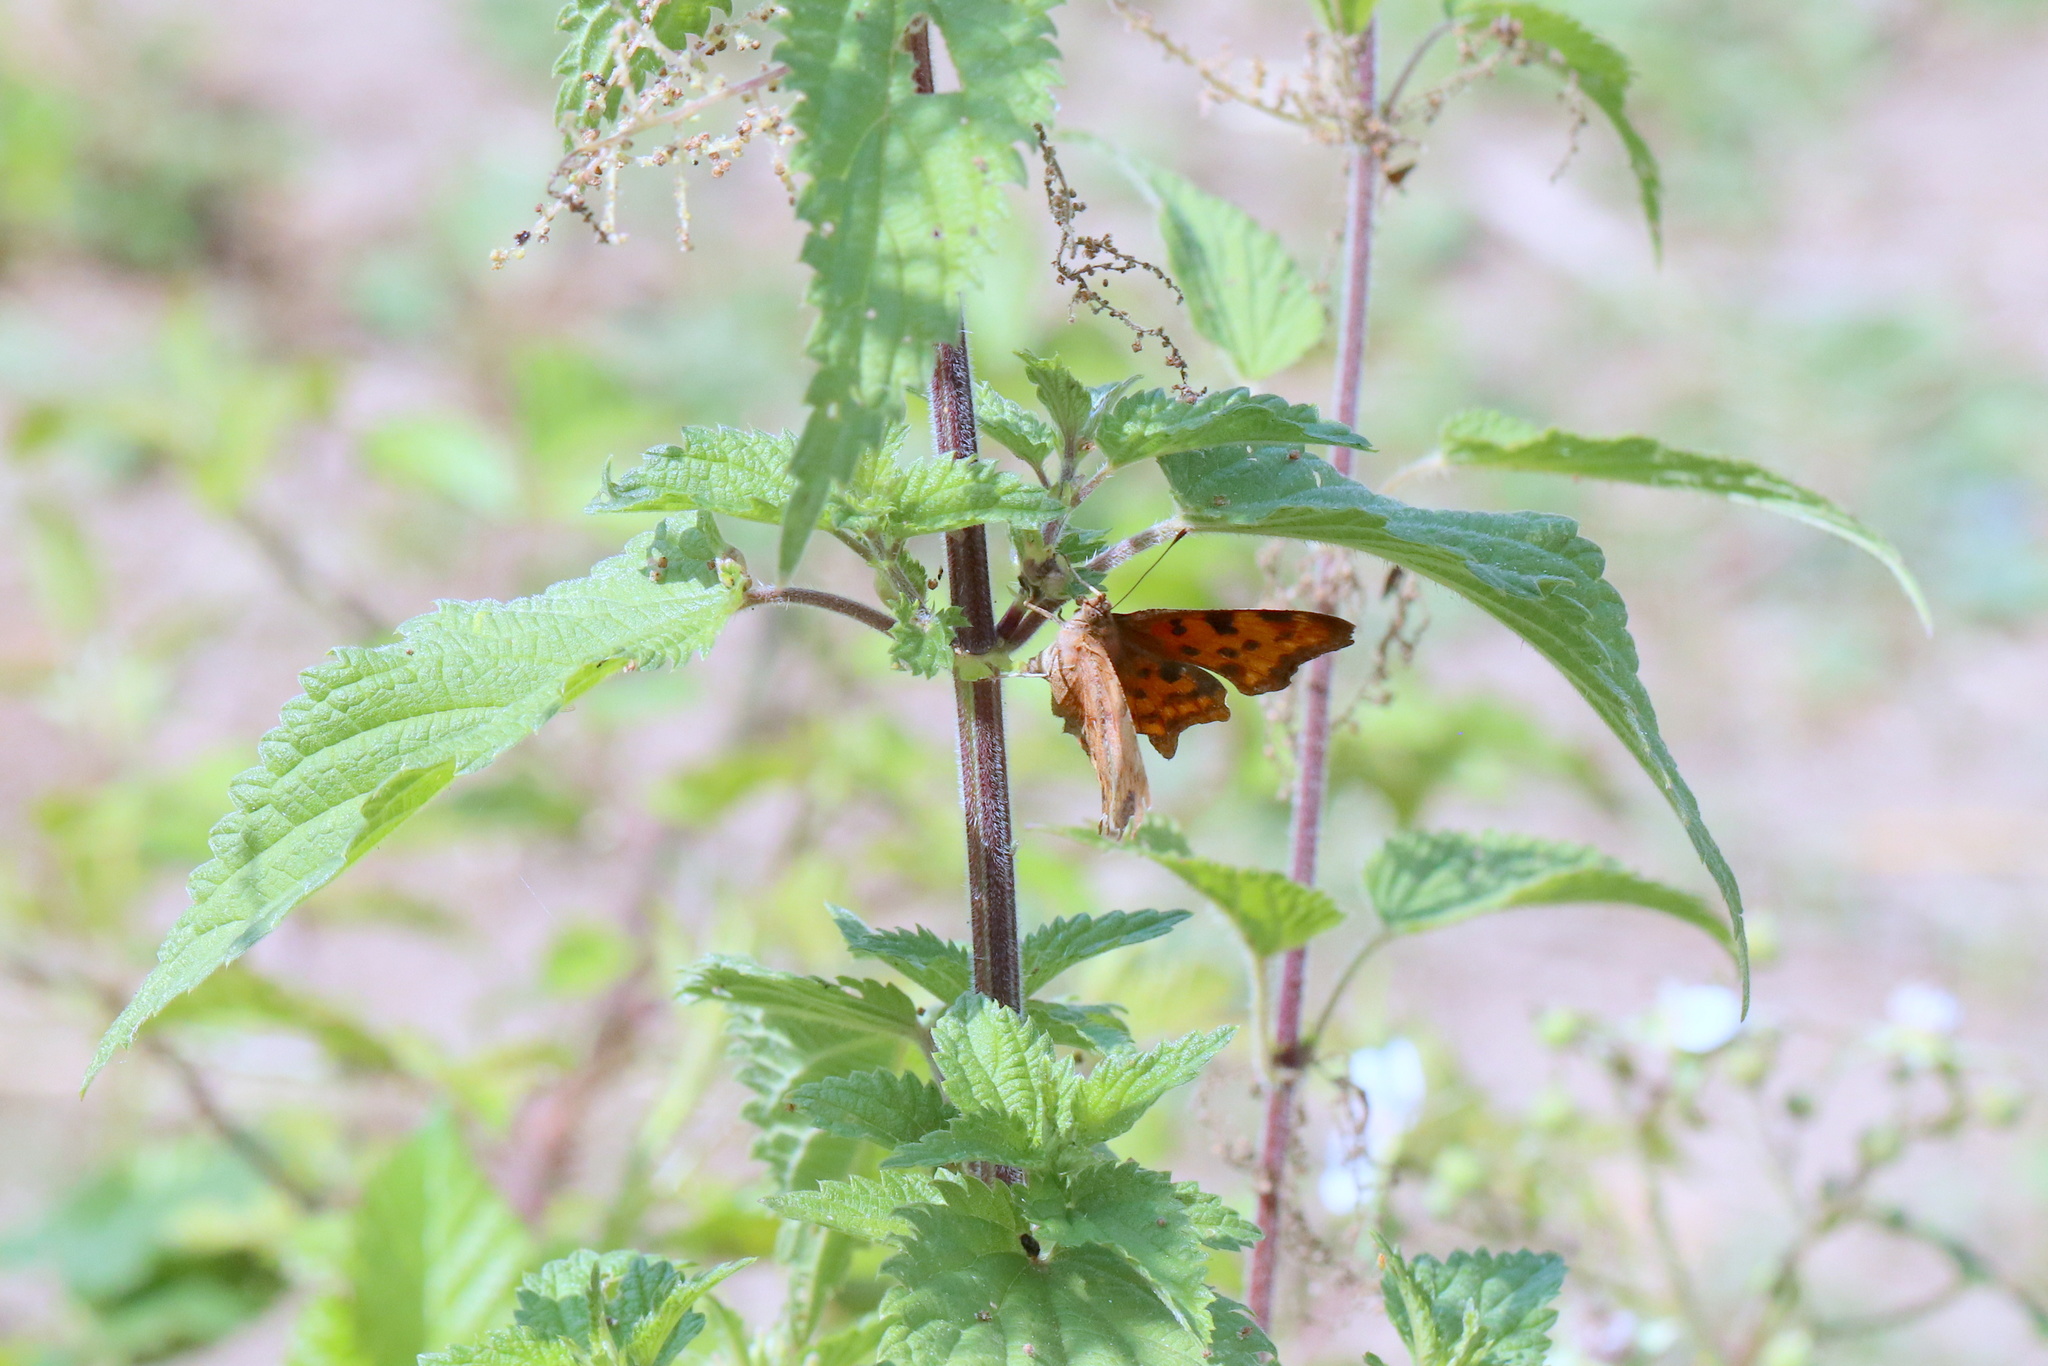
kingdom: Animalia
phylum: Arthropoda
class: Insecta
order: Lepidoptera
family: Nymphalidae
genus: Polygonia
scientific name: Polygonia c-album
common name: Comma
